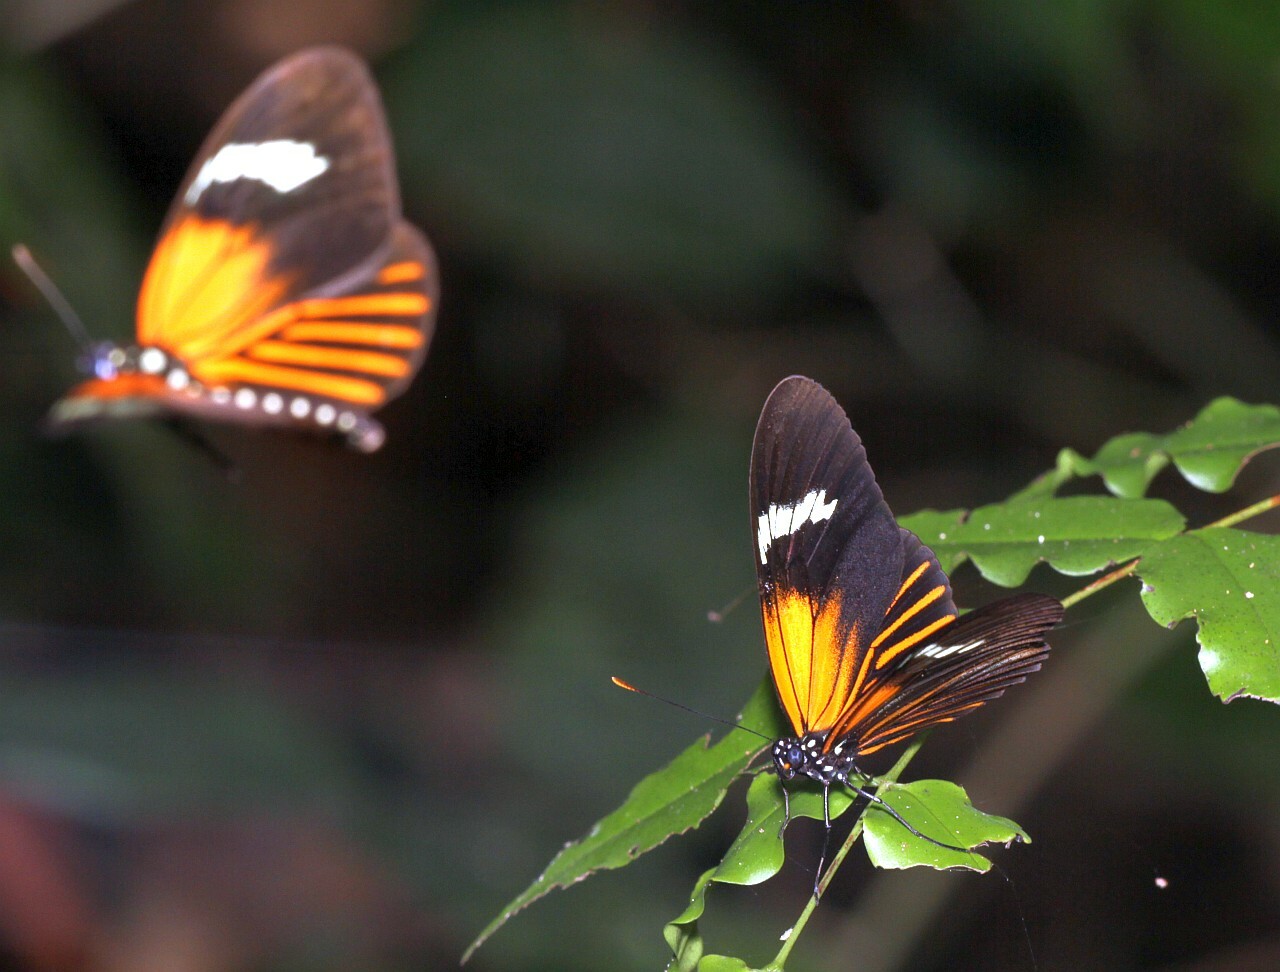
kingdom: Animalia
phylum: Arthropoda
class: Insecta
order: Lepidoptera
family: Nymphalidae
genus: Heliconius
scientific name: Heliconius aoede
